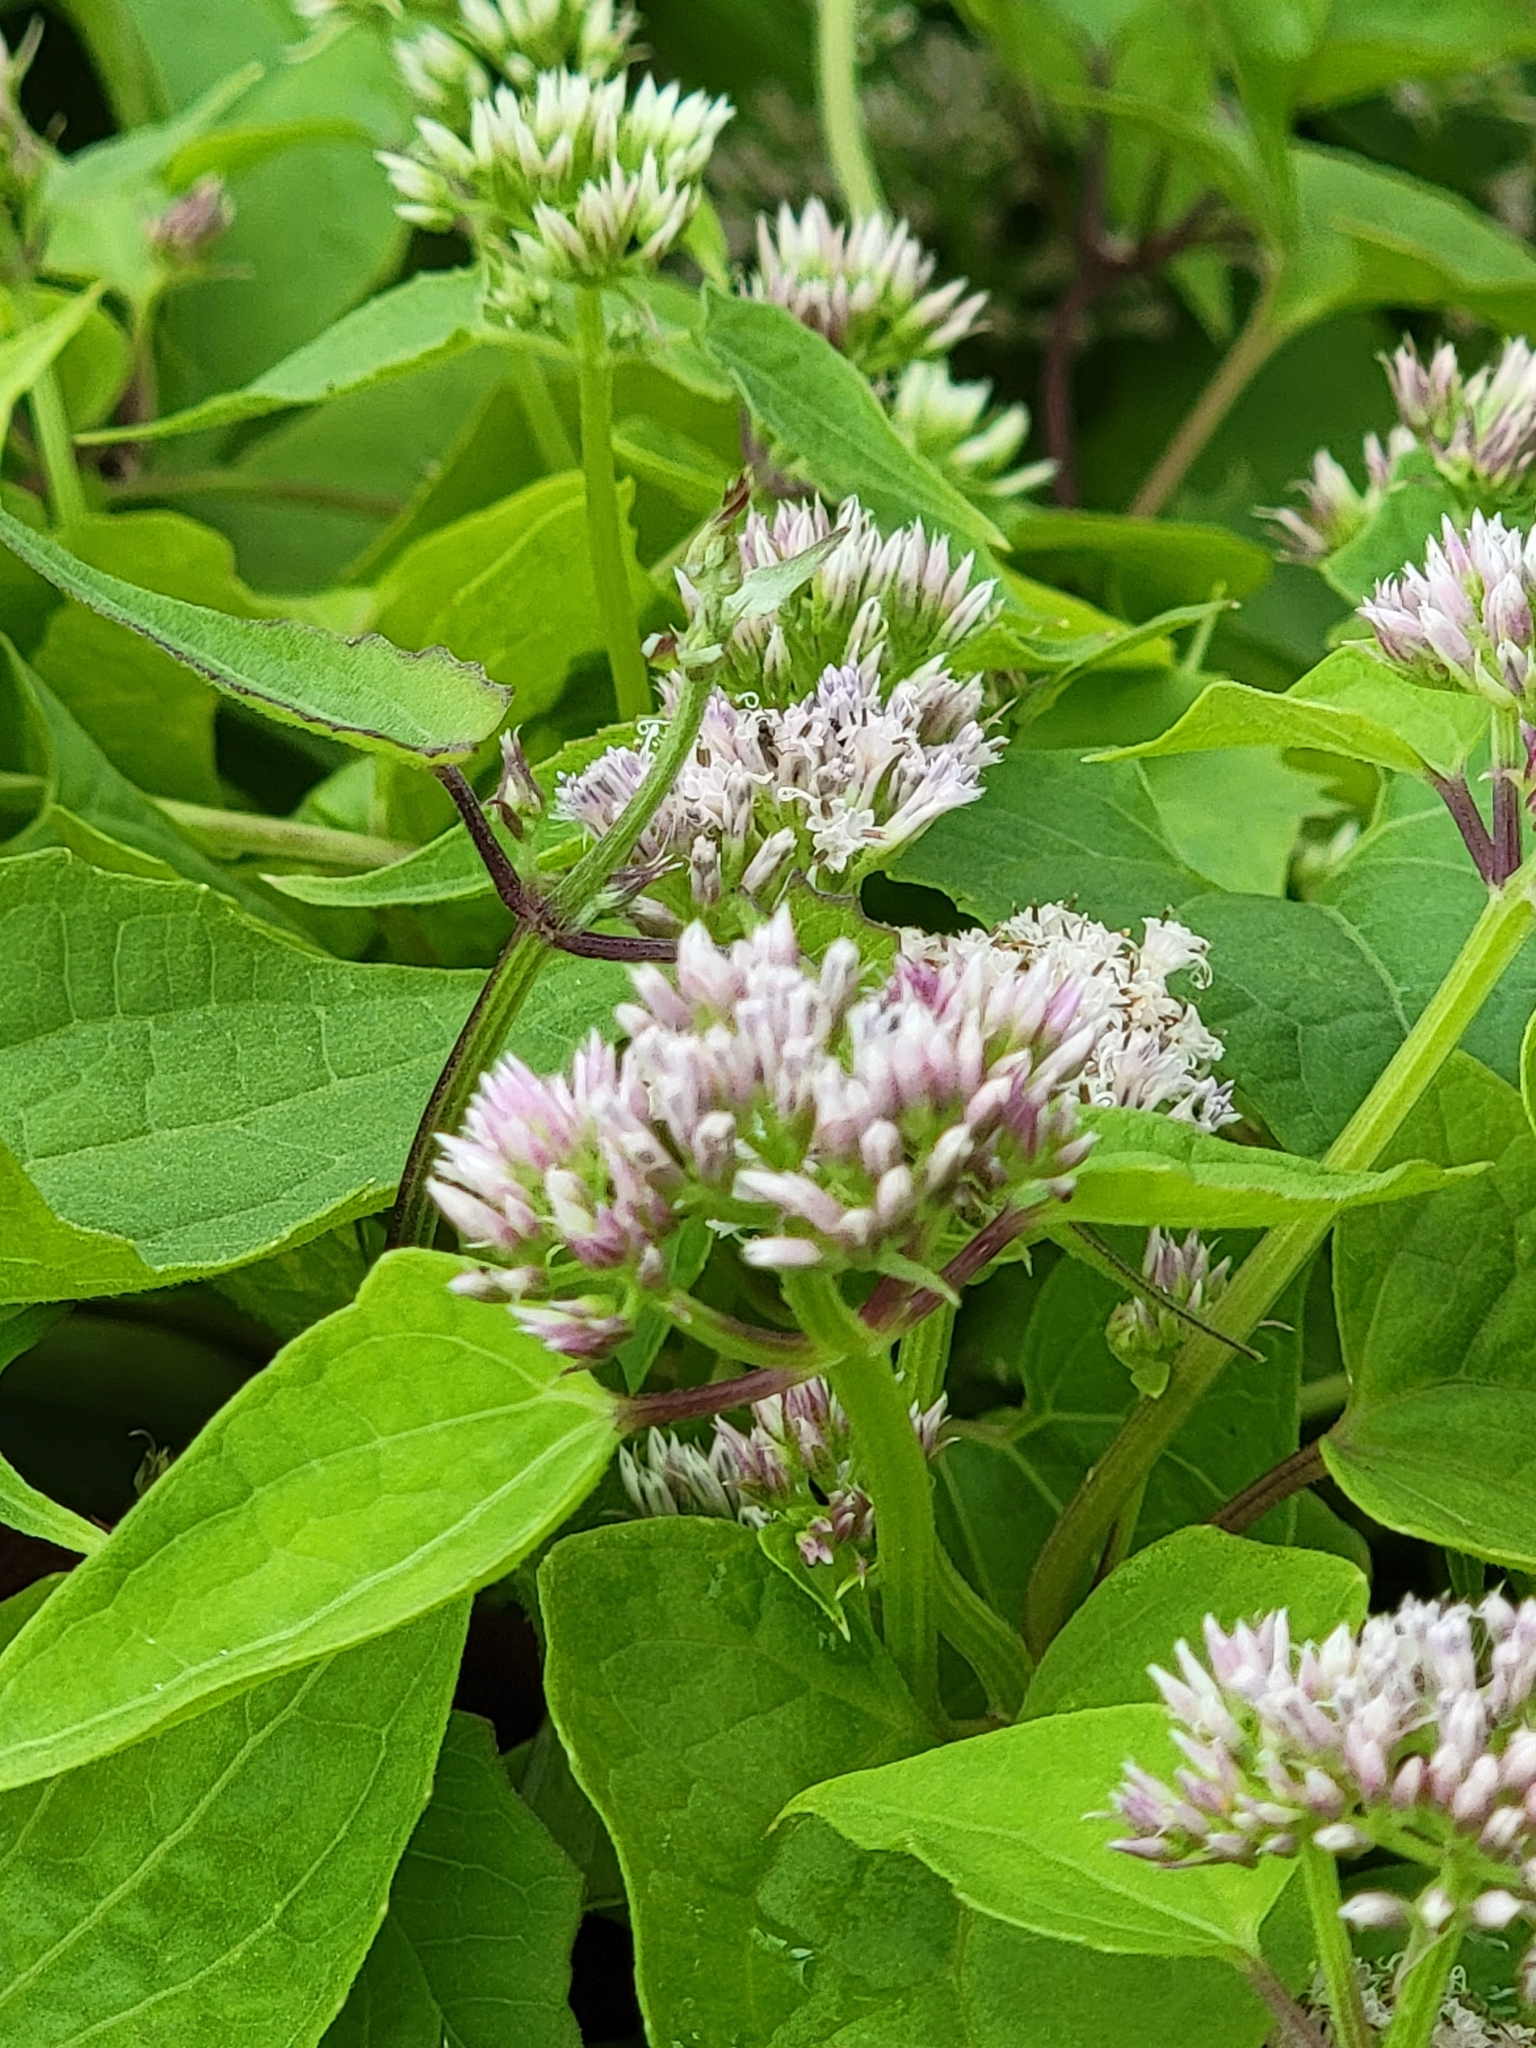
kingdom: Plantae
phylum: Tracheophyta
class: Magnoliopsida
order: Asterales
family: Asteraceae
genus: Mikania
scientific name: Mikania scandens
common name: Climbing hempvine
